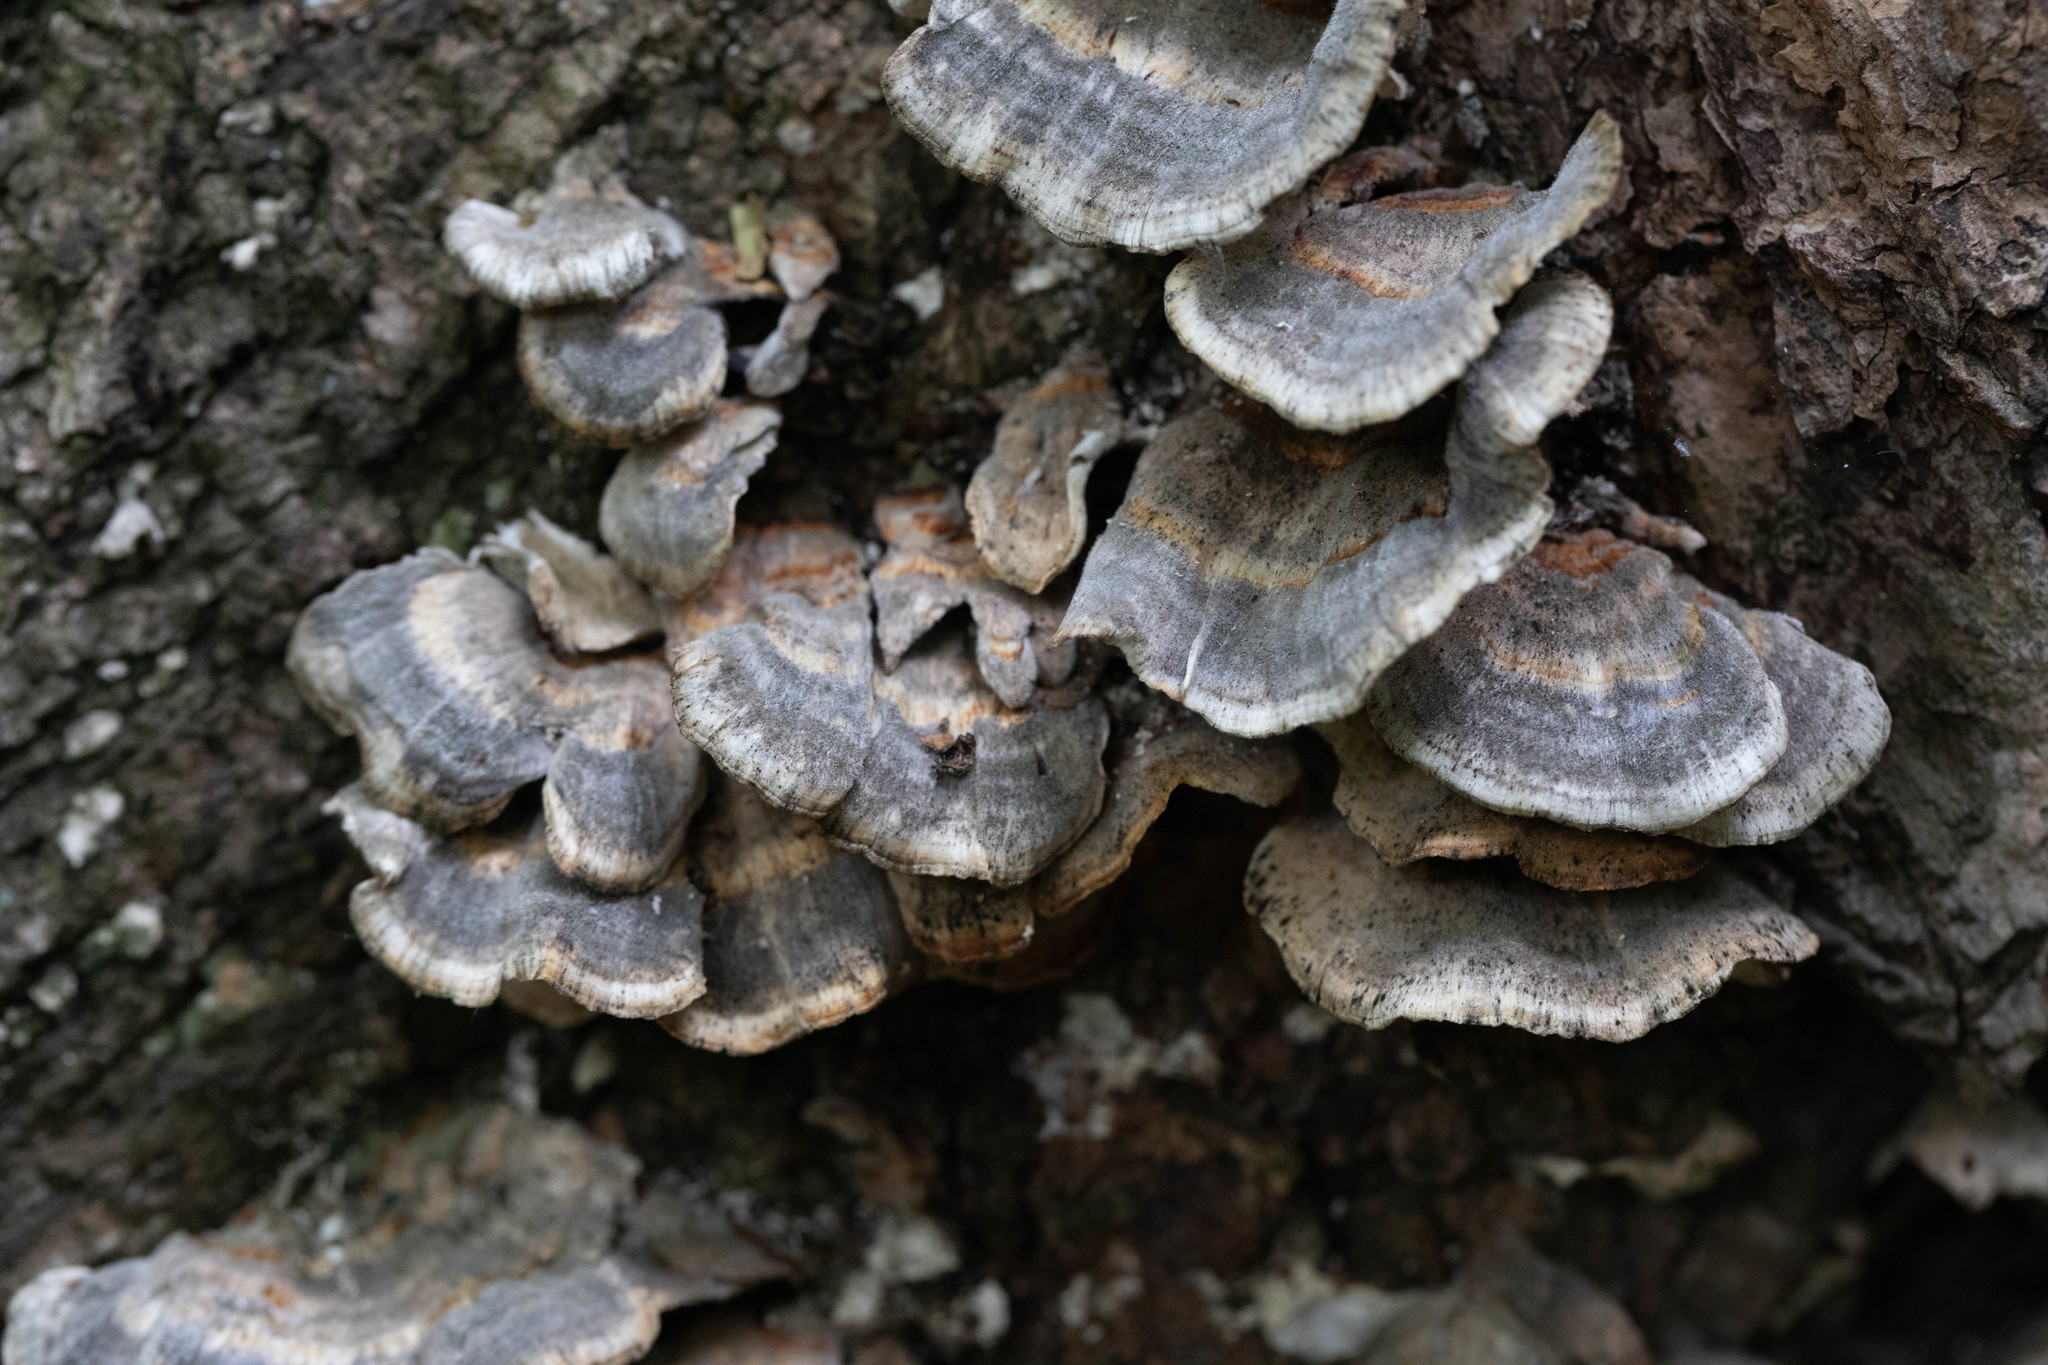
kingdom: Fungi
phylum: Basidiomycota
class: Agaricomycetes
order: Polyporales
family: Polyporaceae
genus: Trametes
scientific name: Trametes versicolor
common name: Turkeytail
